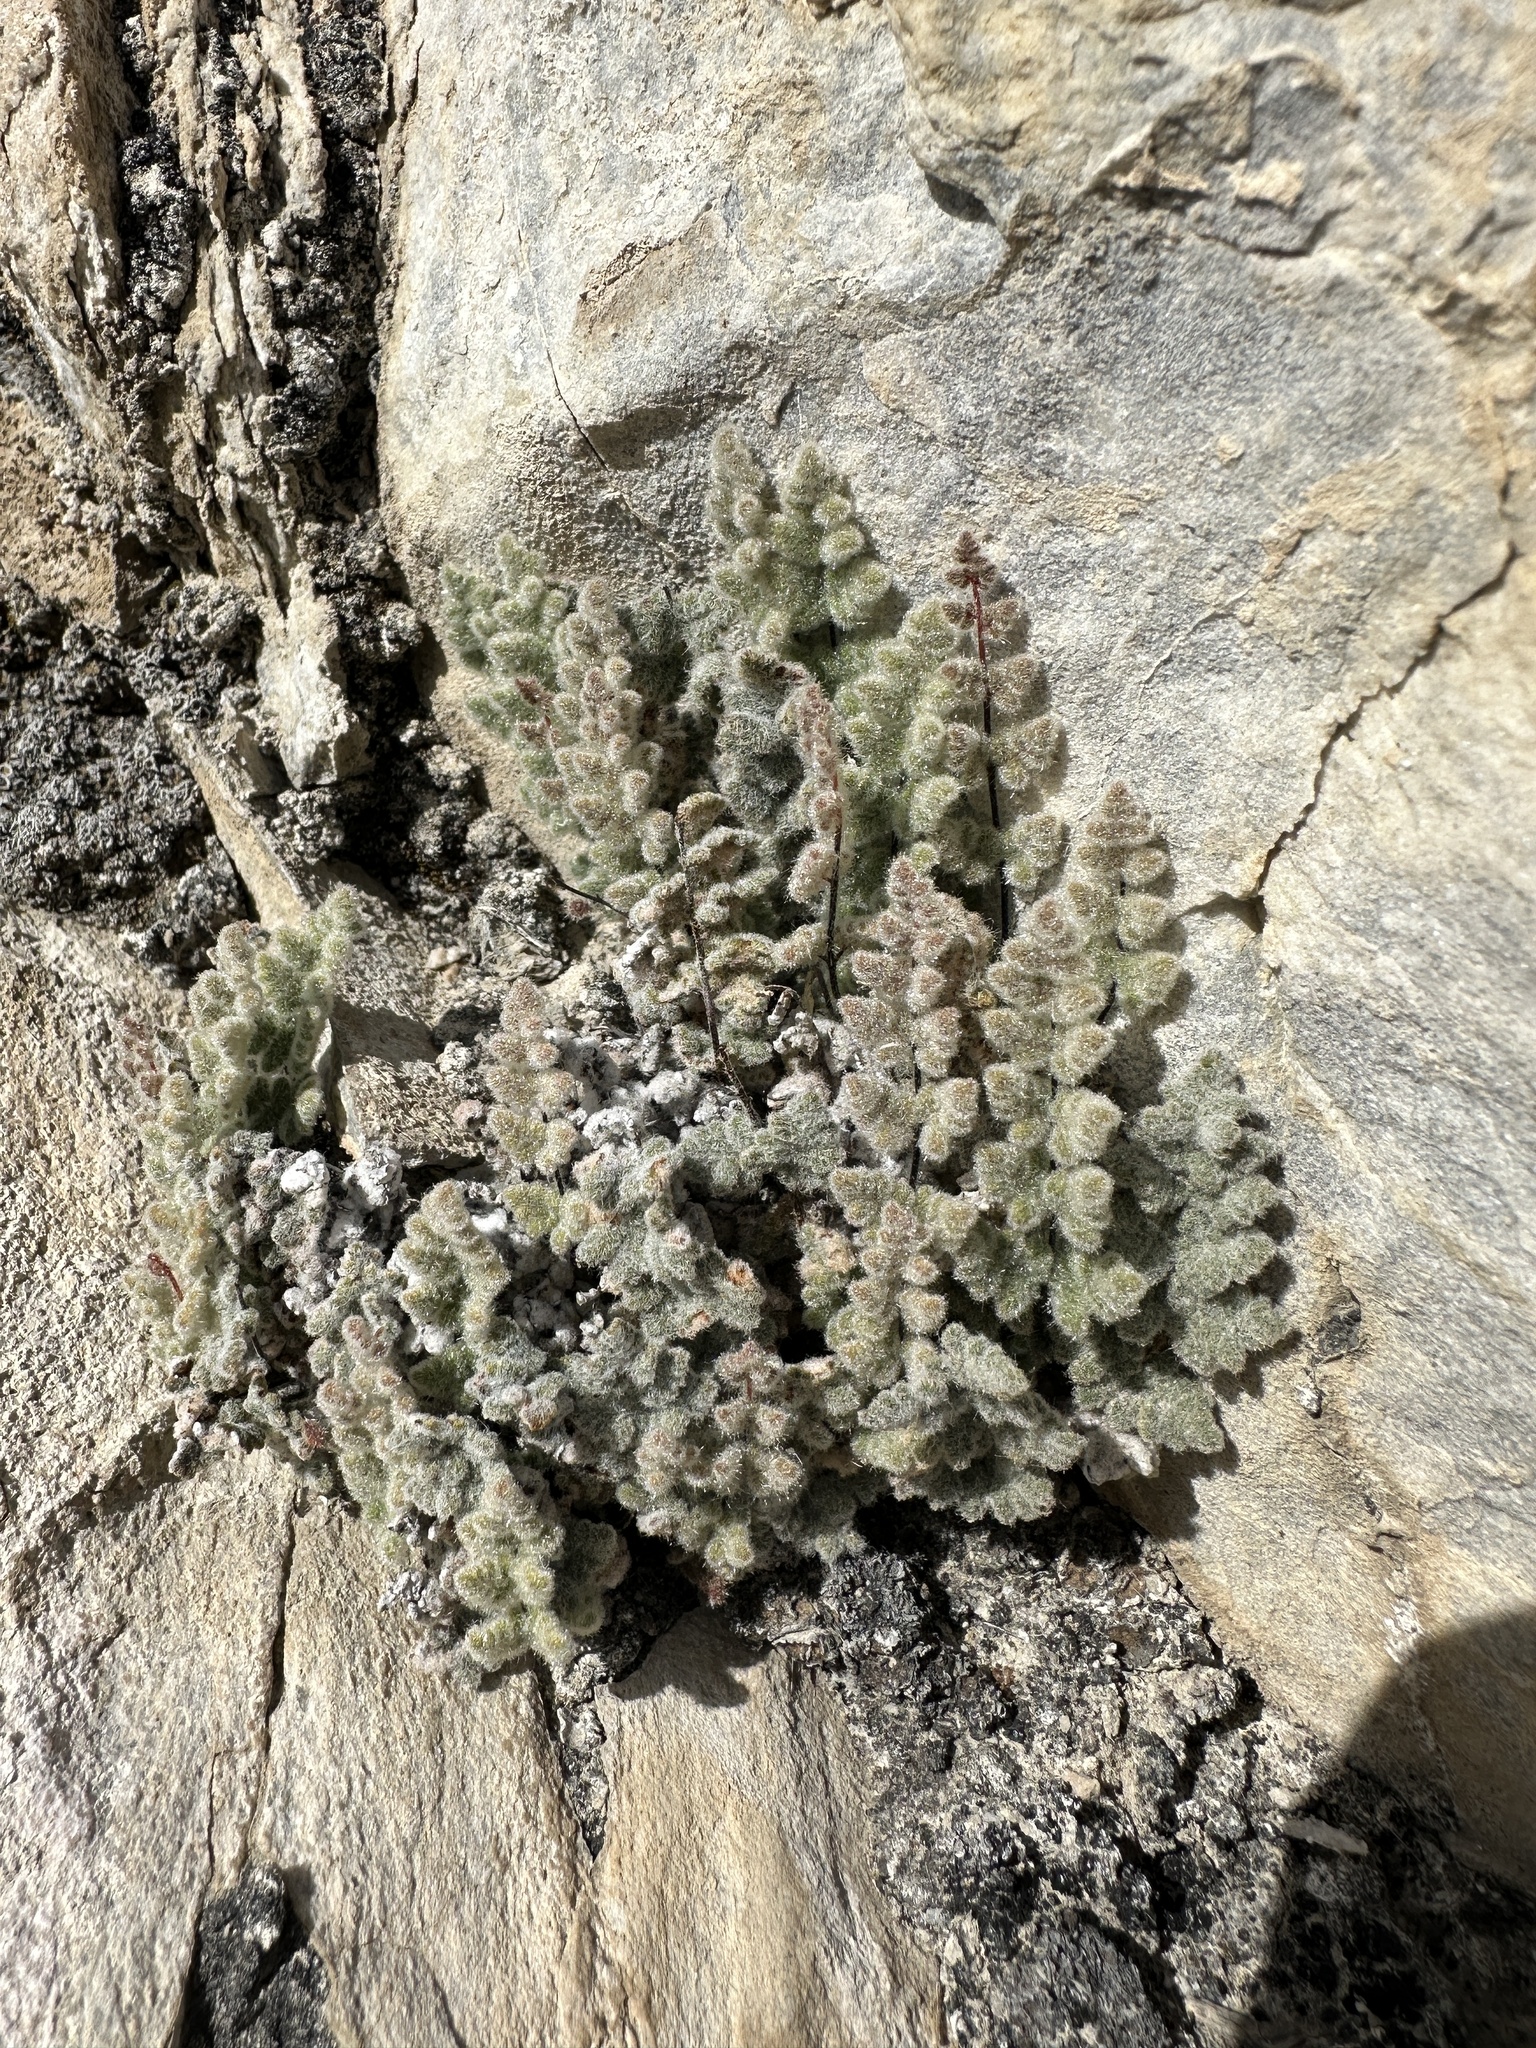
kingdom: Plantae
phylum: Tracheophyta
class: Polypodiopsida
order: Polypodiales
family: Pteridaceae
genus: Myriopteris
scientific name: Myriopteris parryi
